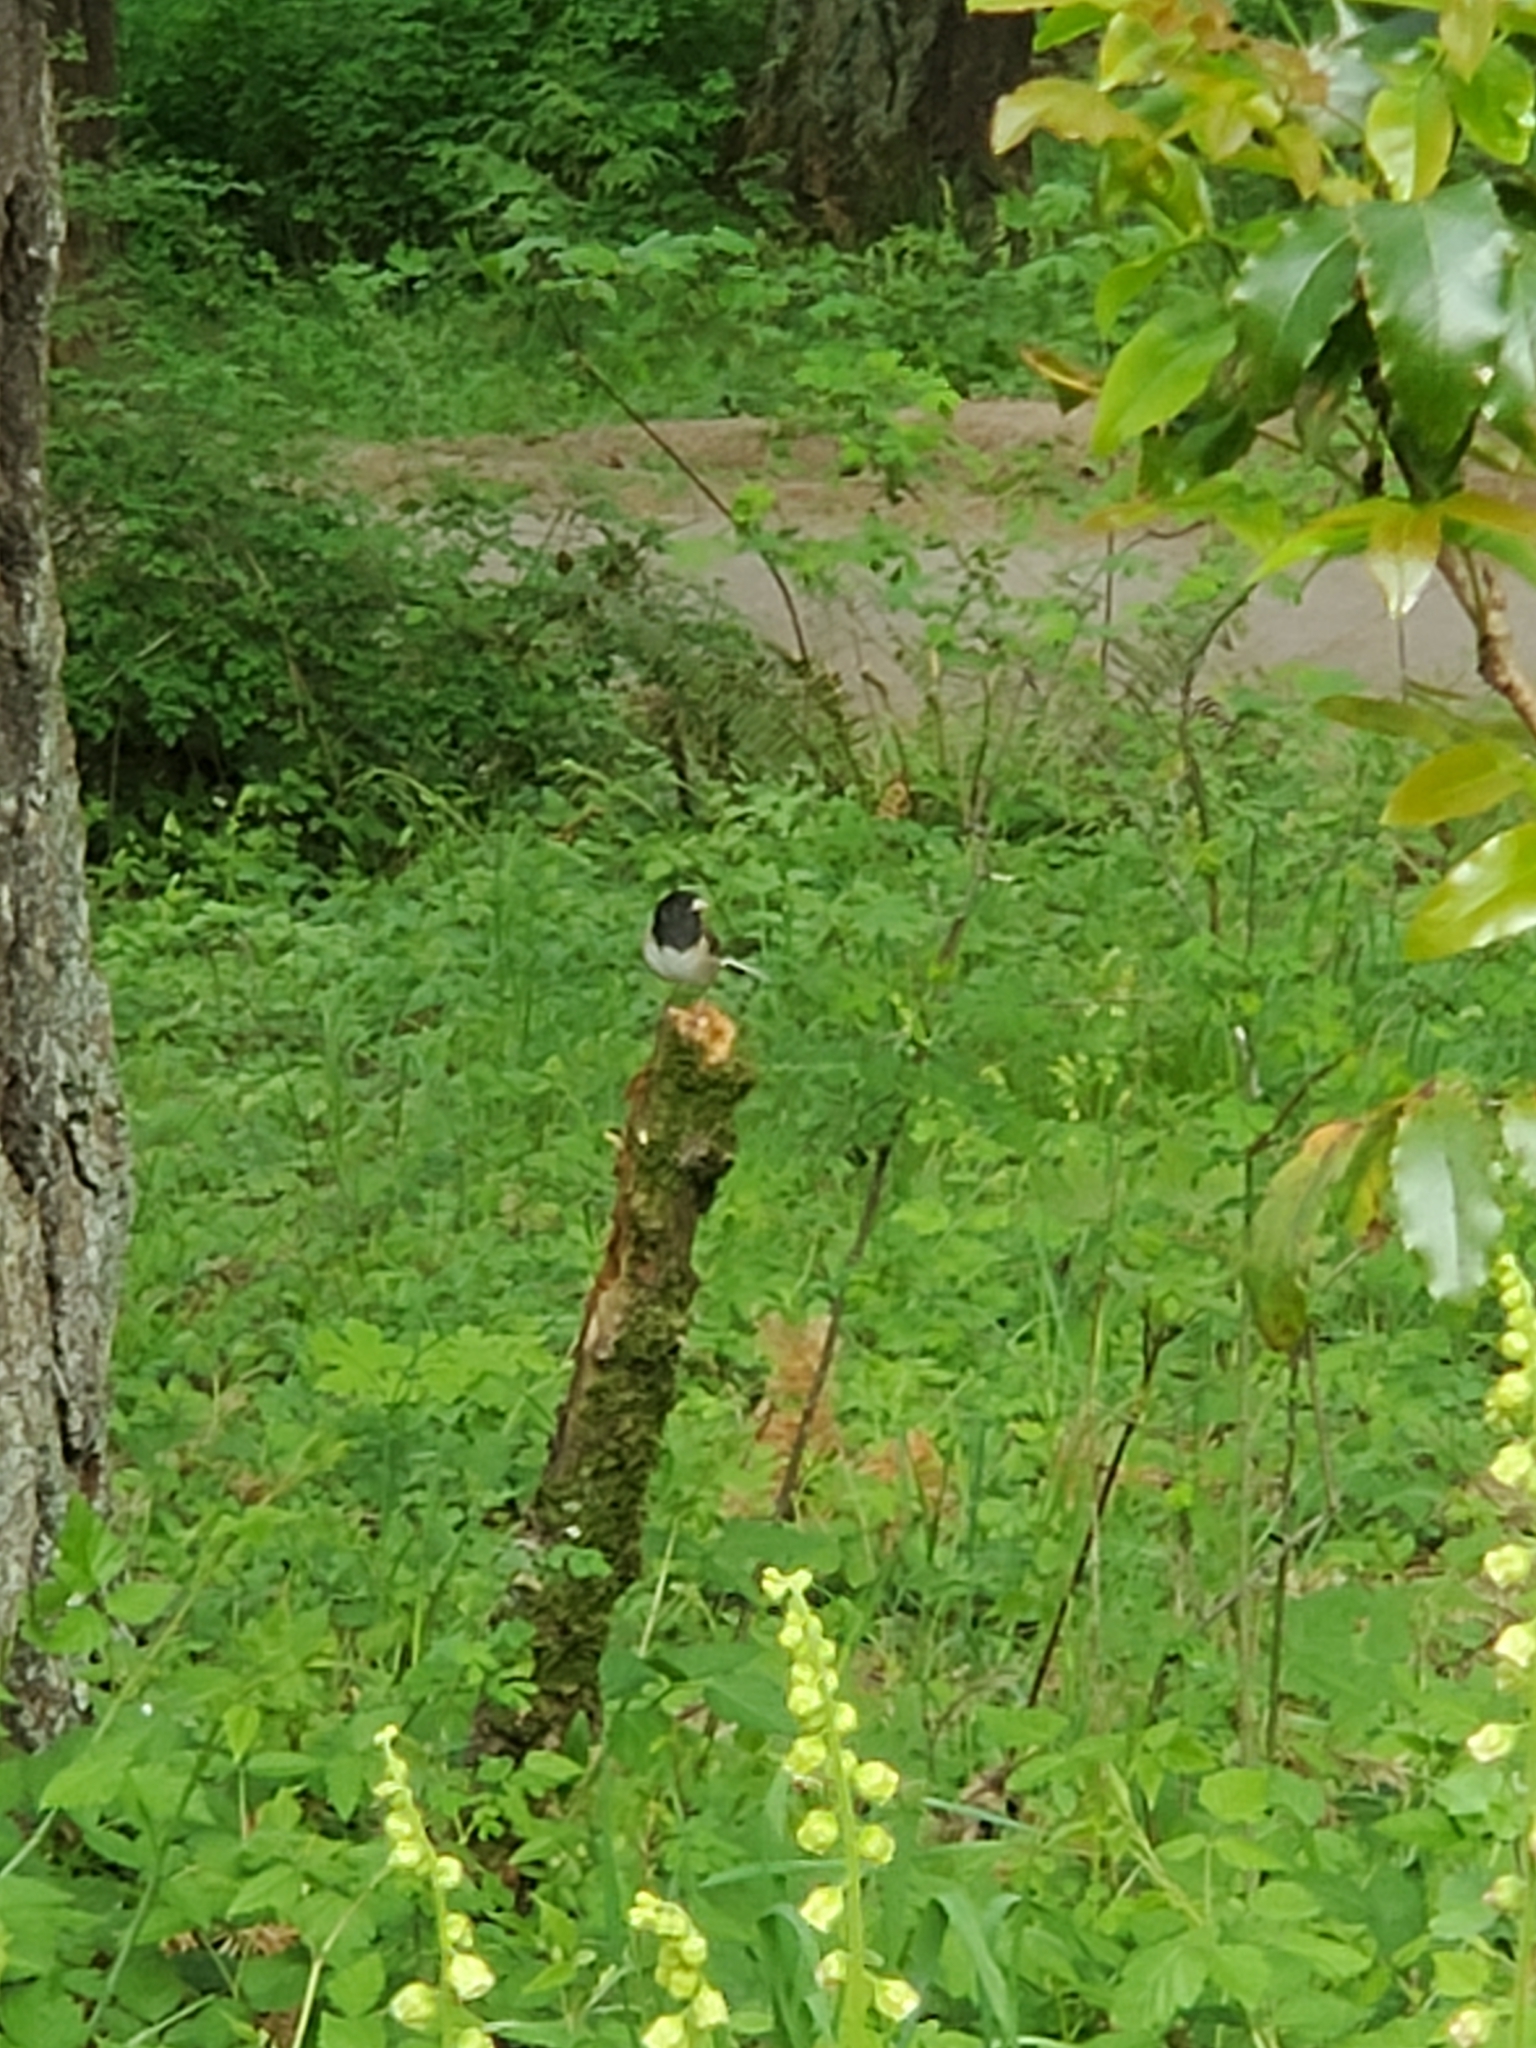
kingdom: Animalia
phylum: Chordata
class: Aves
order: Passeriformes
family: Passerellidae
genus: Junco
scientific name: Junco hyemalis
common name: Dark-eyed junco
